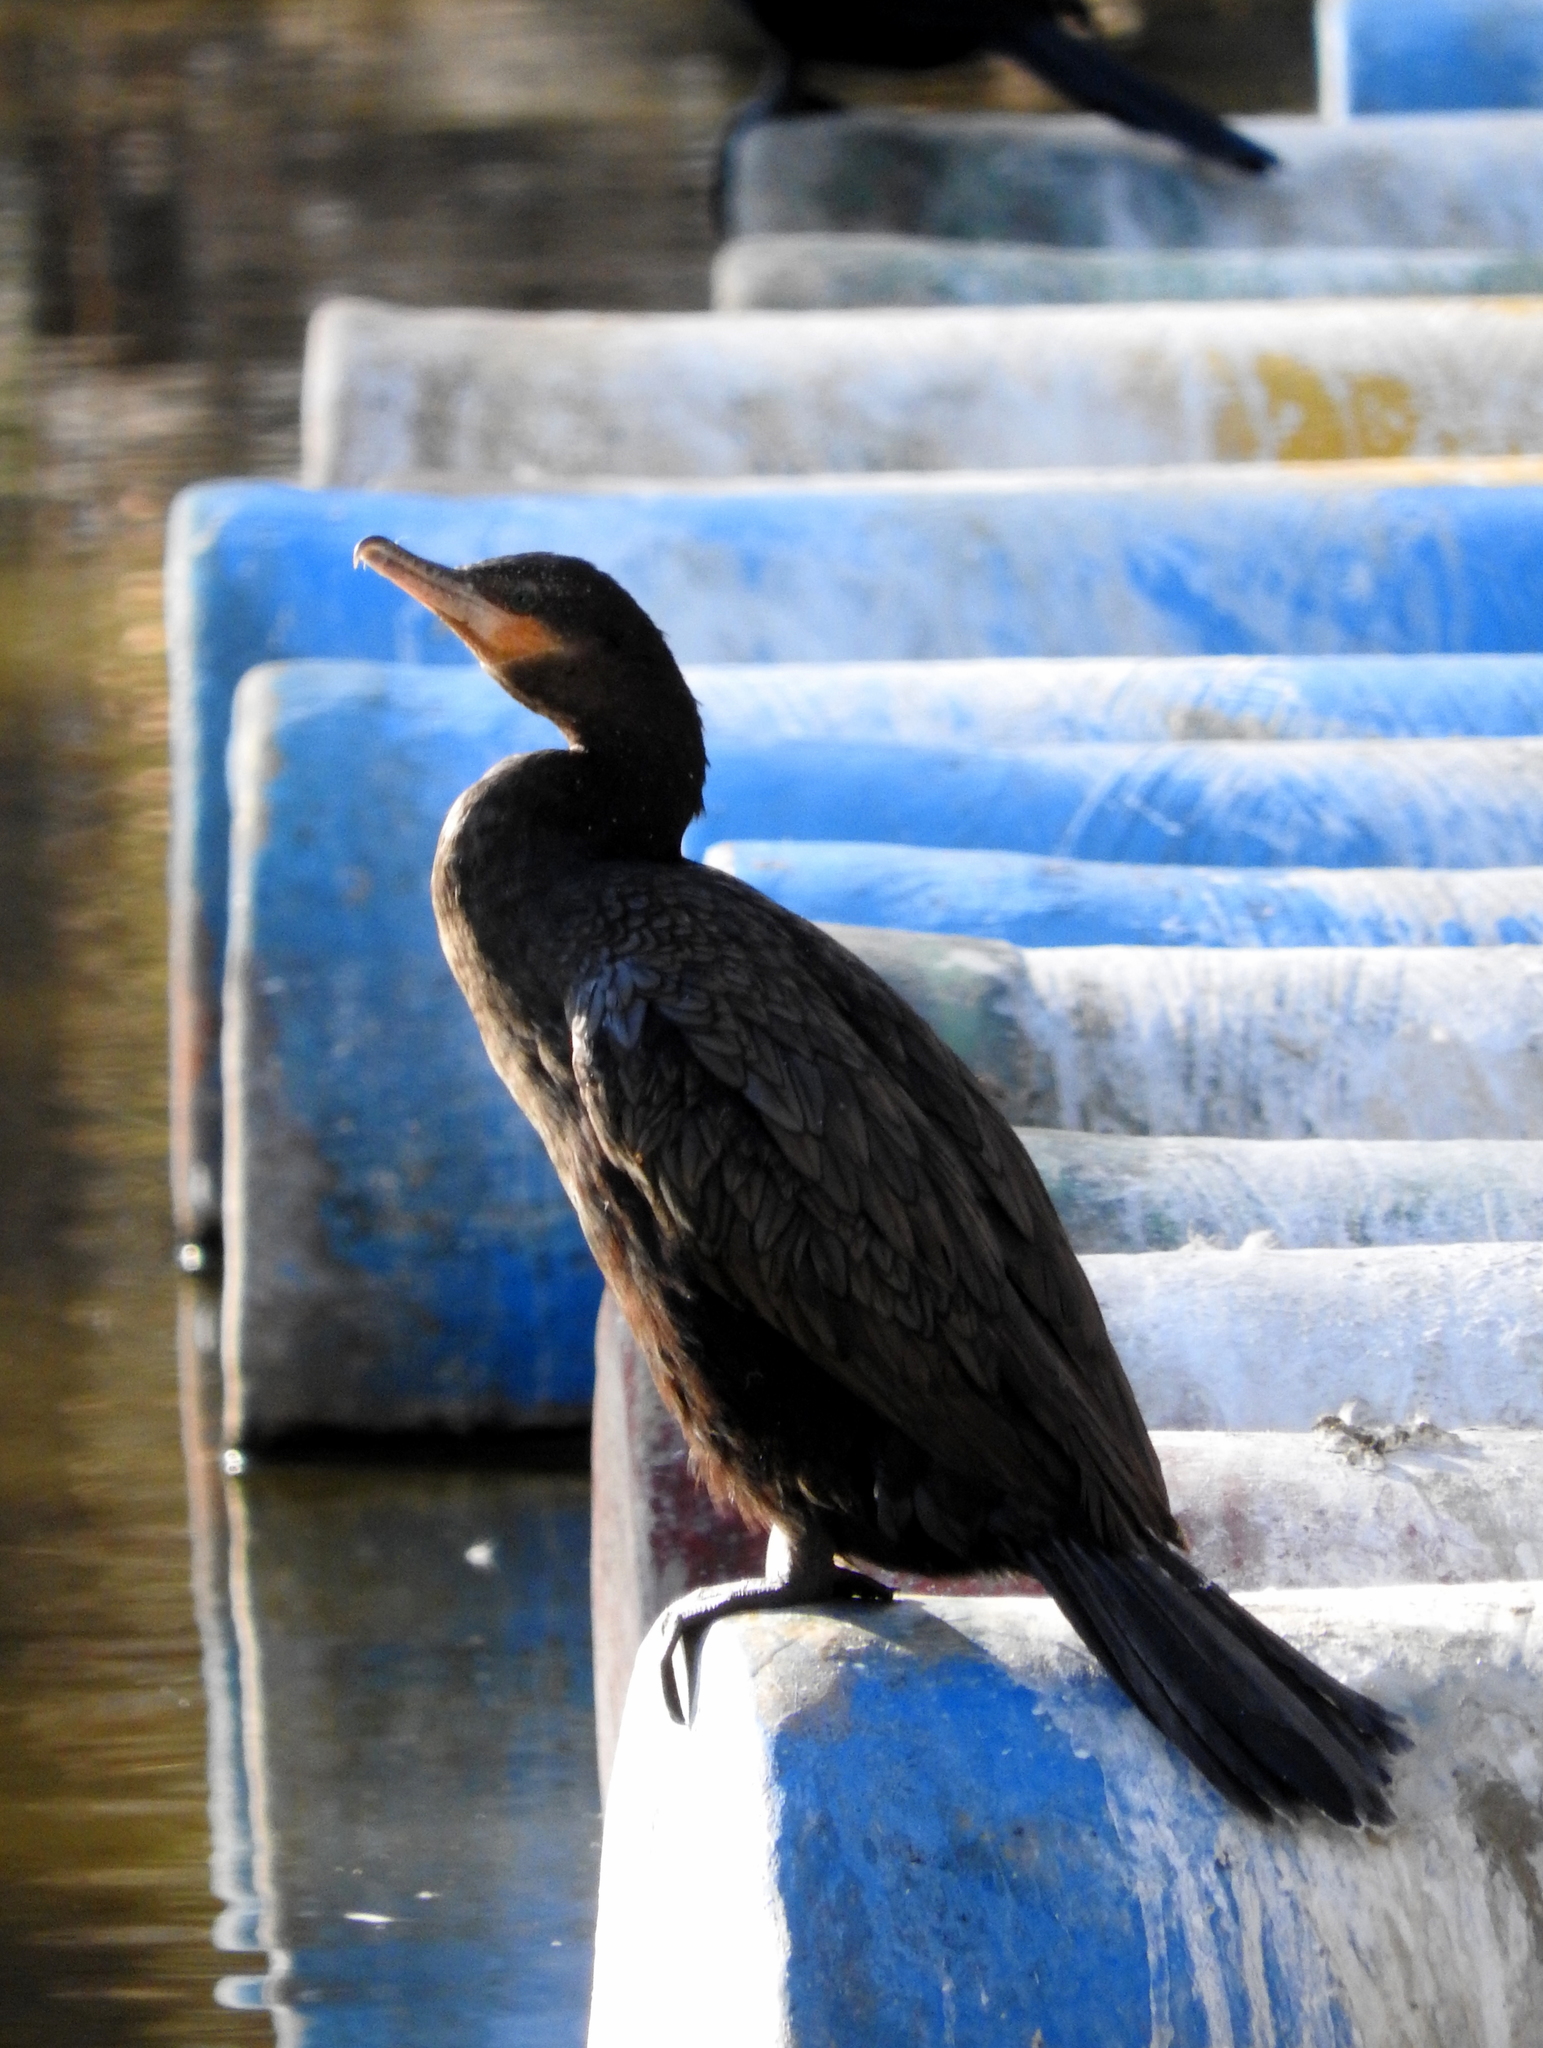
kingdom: Animalia
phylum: Chordata
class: Aves
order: Suliformes
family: Phalacrocoracidae
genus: Phalacrocorax
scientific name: Phalacrocorax brasilianus
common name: Neotropic cormorant
